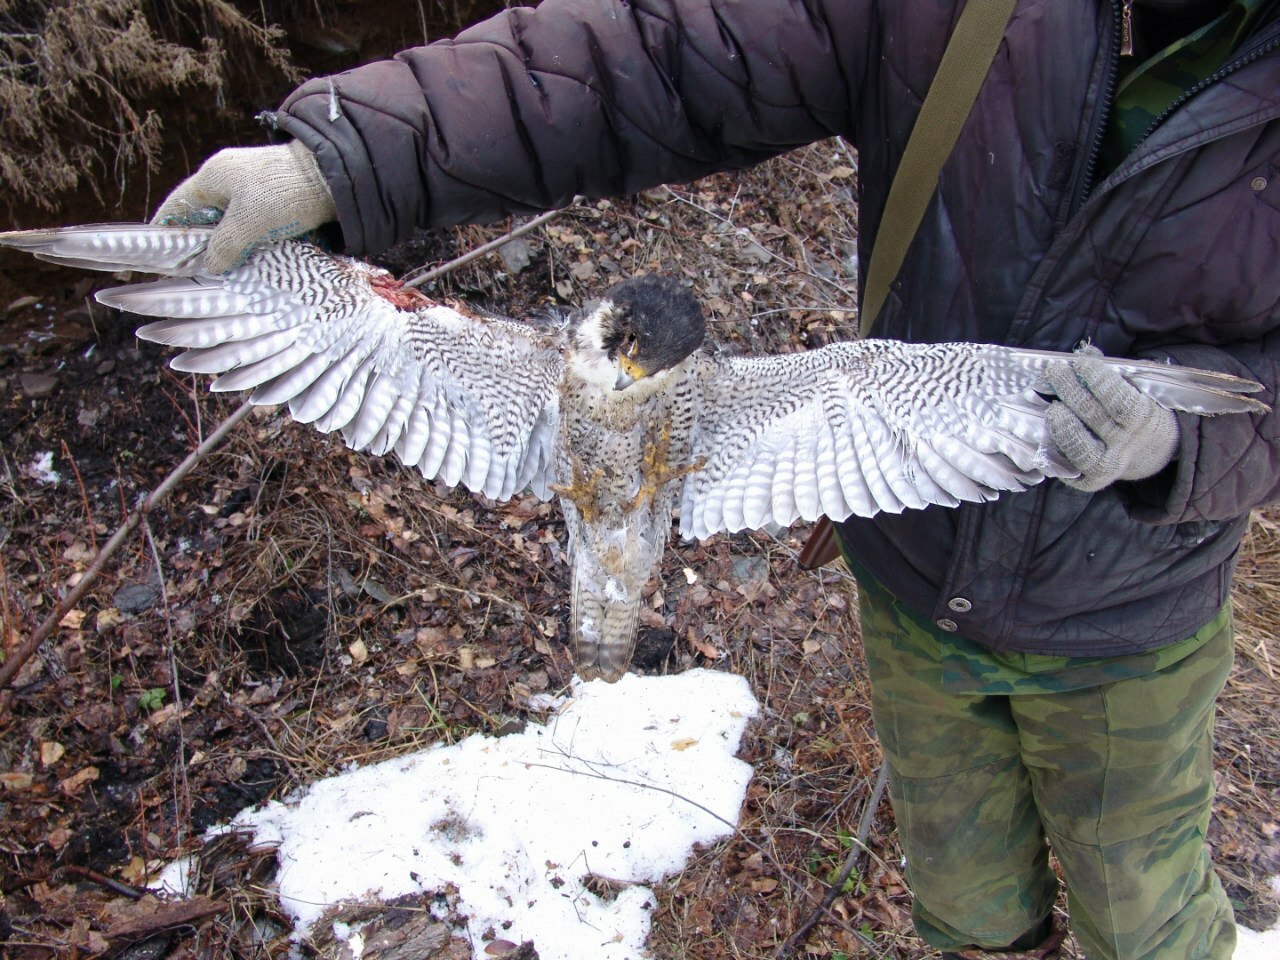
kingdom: Animalia
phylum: Chordata
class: Aves
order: Falconiformes
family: Falconidae
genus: Falco
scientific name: Falco peregrinus
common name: Peregrine falcon
